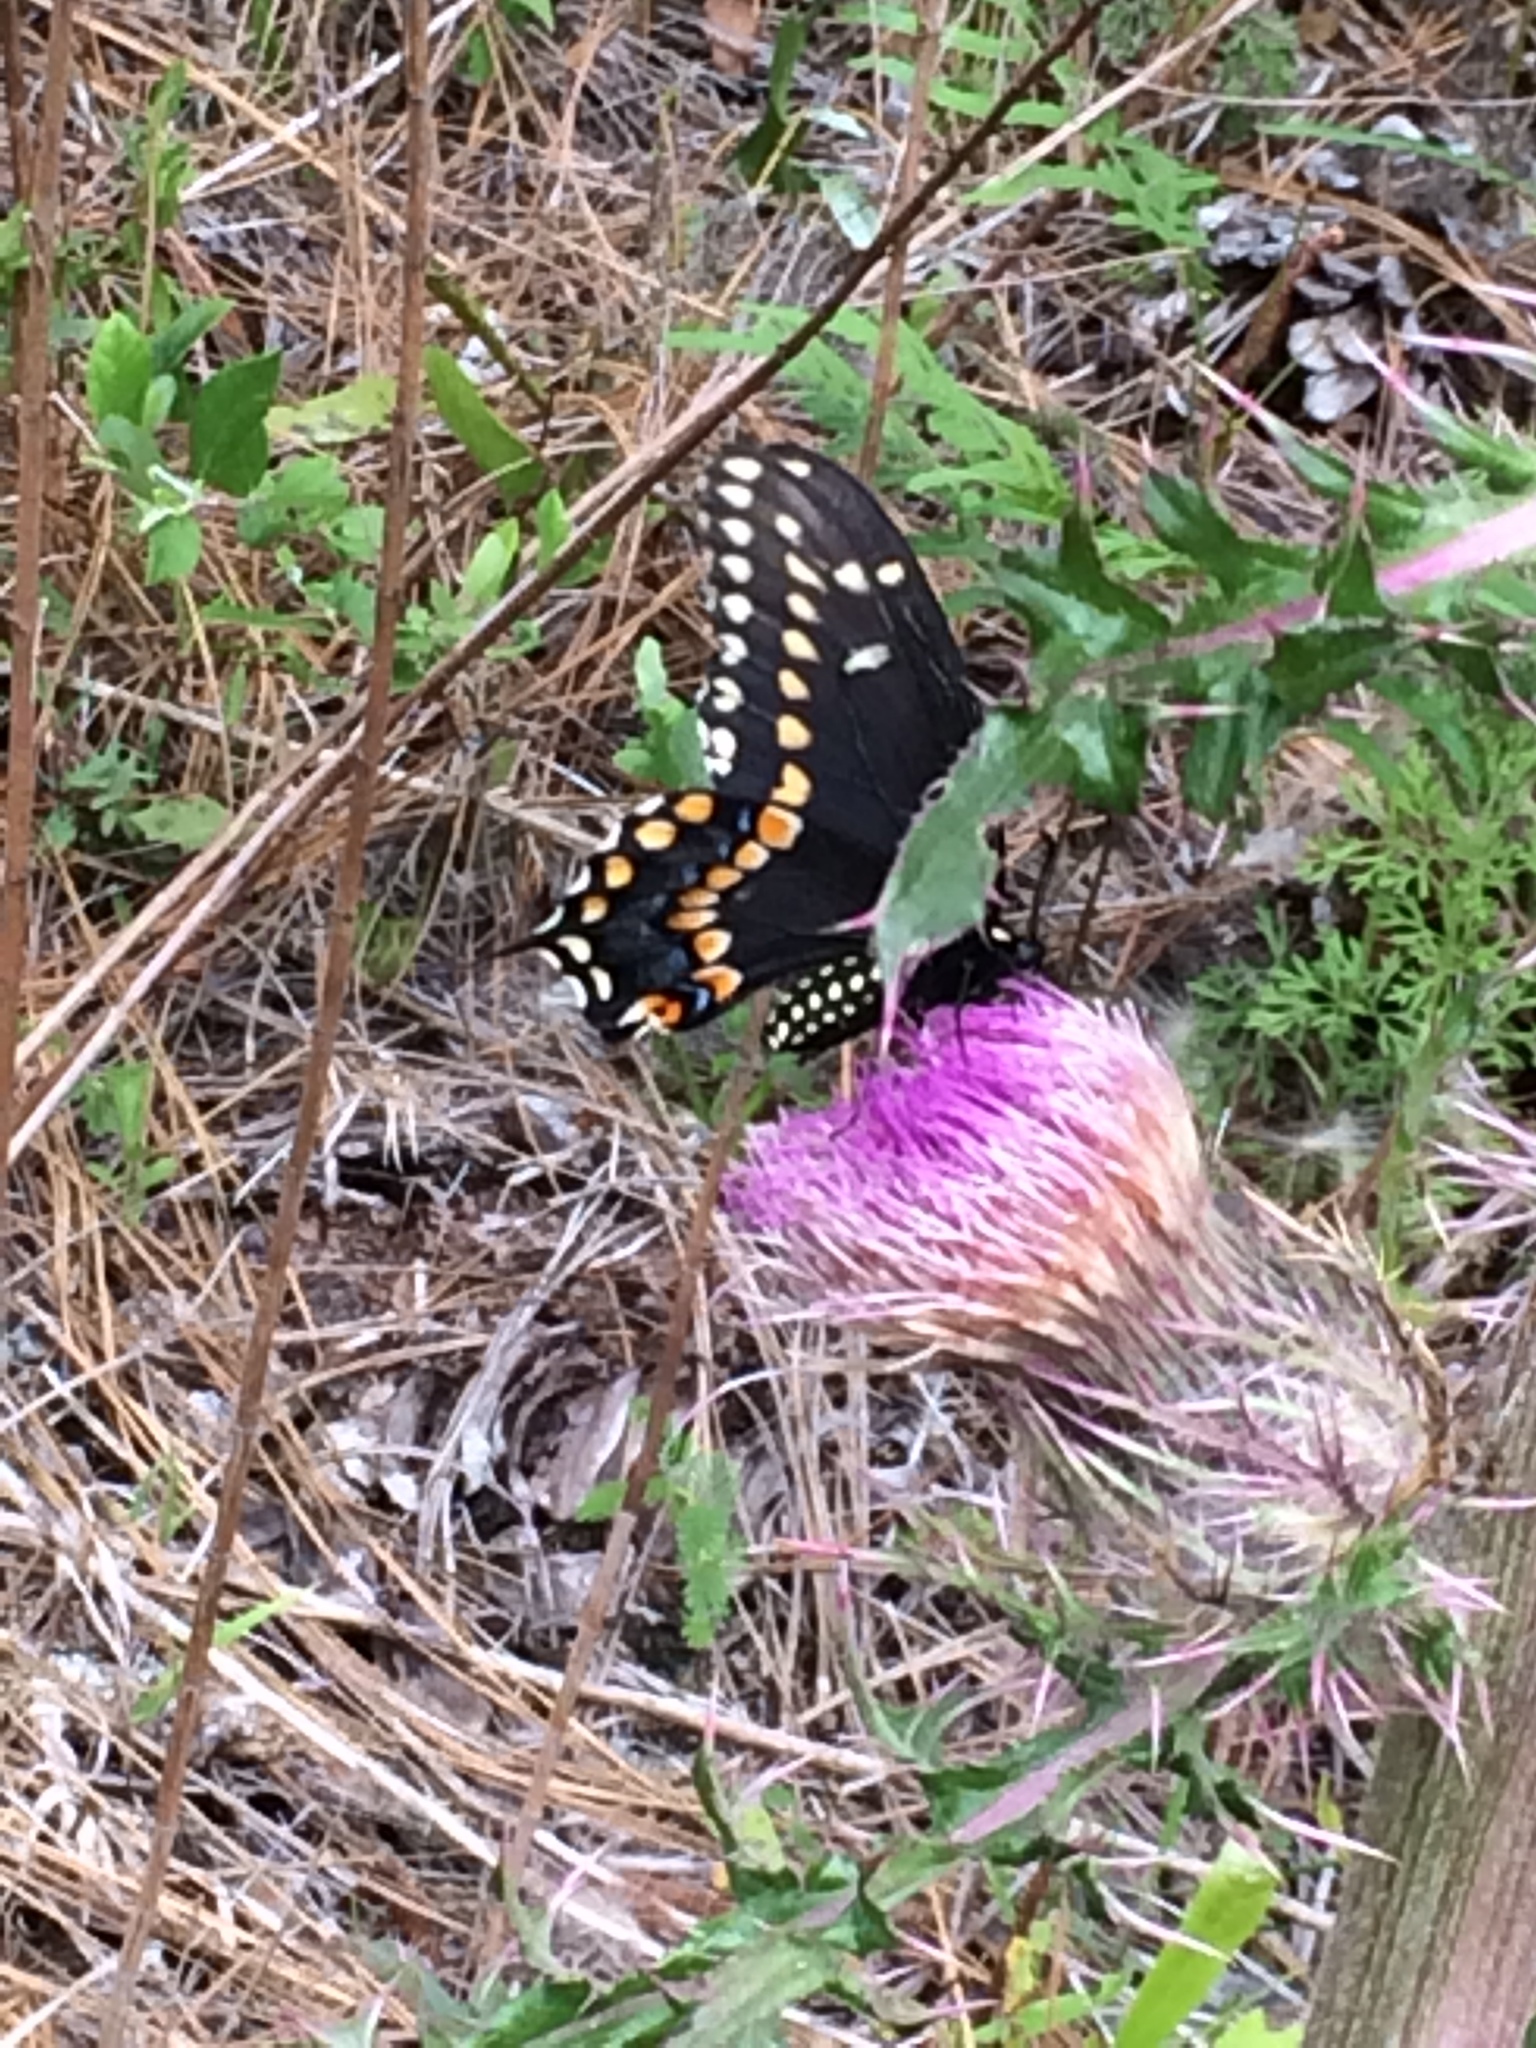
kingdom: Animalia
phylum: Arthropoda
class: Insecta
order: Lepidoptera
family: Papilionidae
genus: Papilio
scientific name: Papilio polyxenes
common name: Black swallowtail
